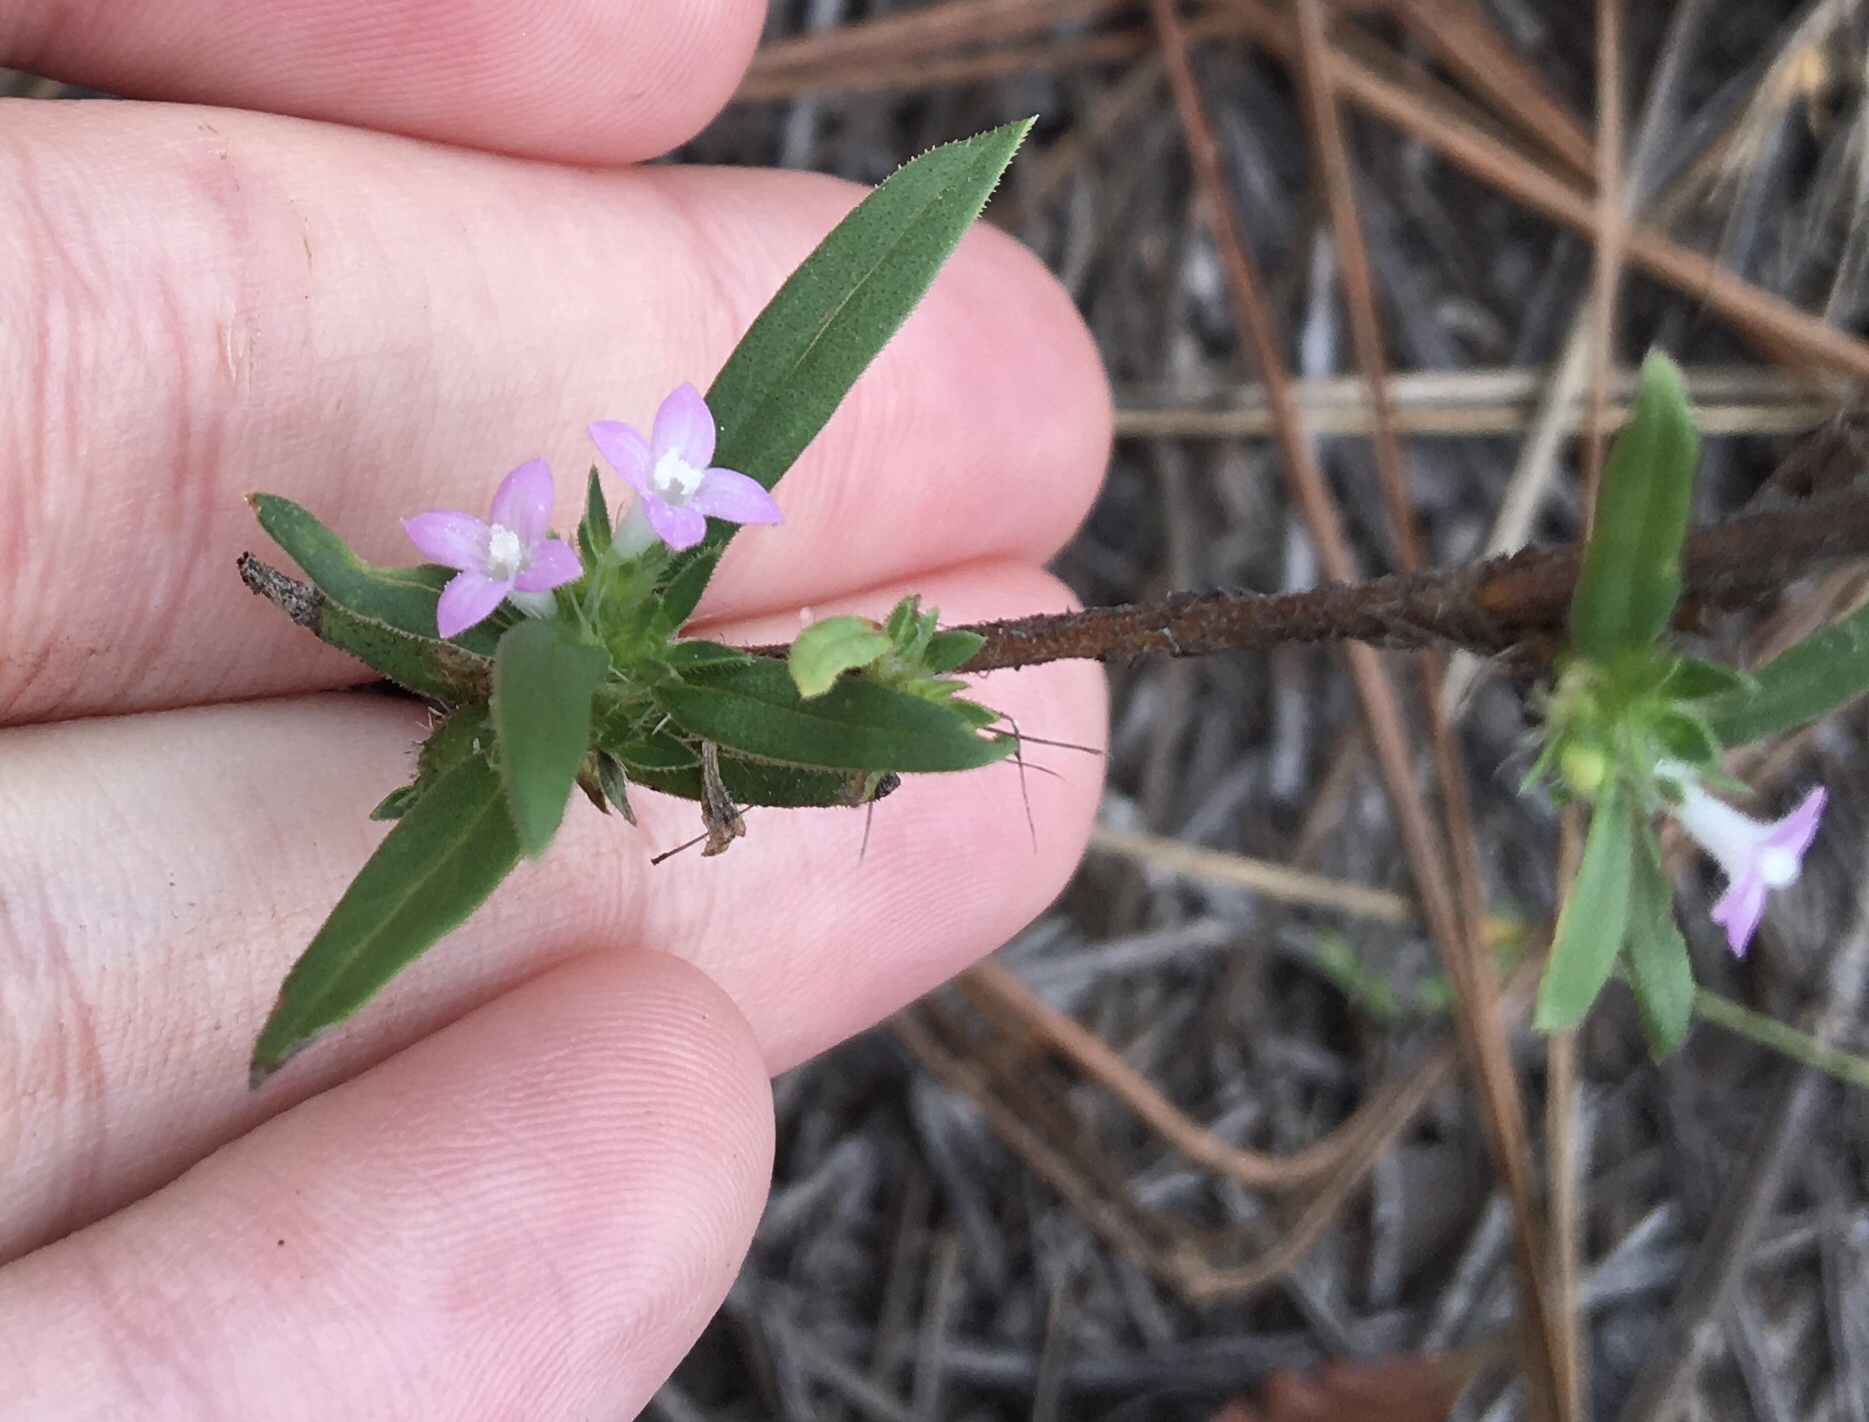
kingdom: Plantae
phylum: Tracheophyta
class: Magnoliopsida
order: Gentianales
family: Rubiaceae
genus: Hexasepalum
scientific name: Hexasepalum teres
